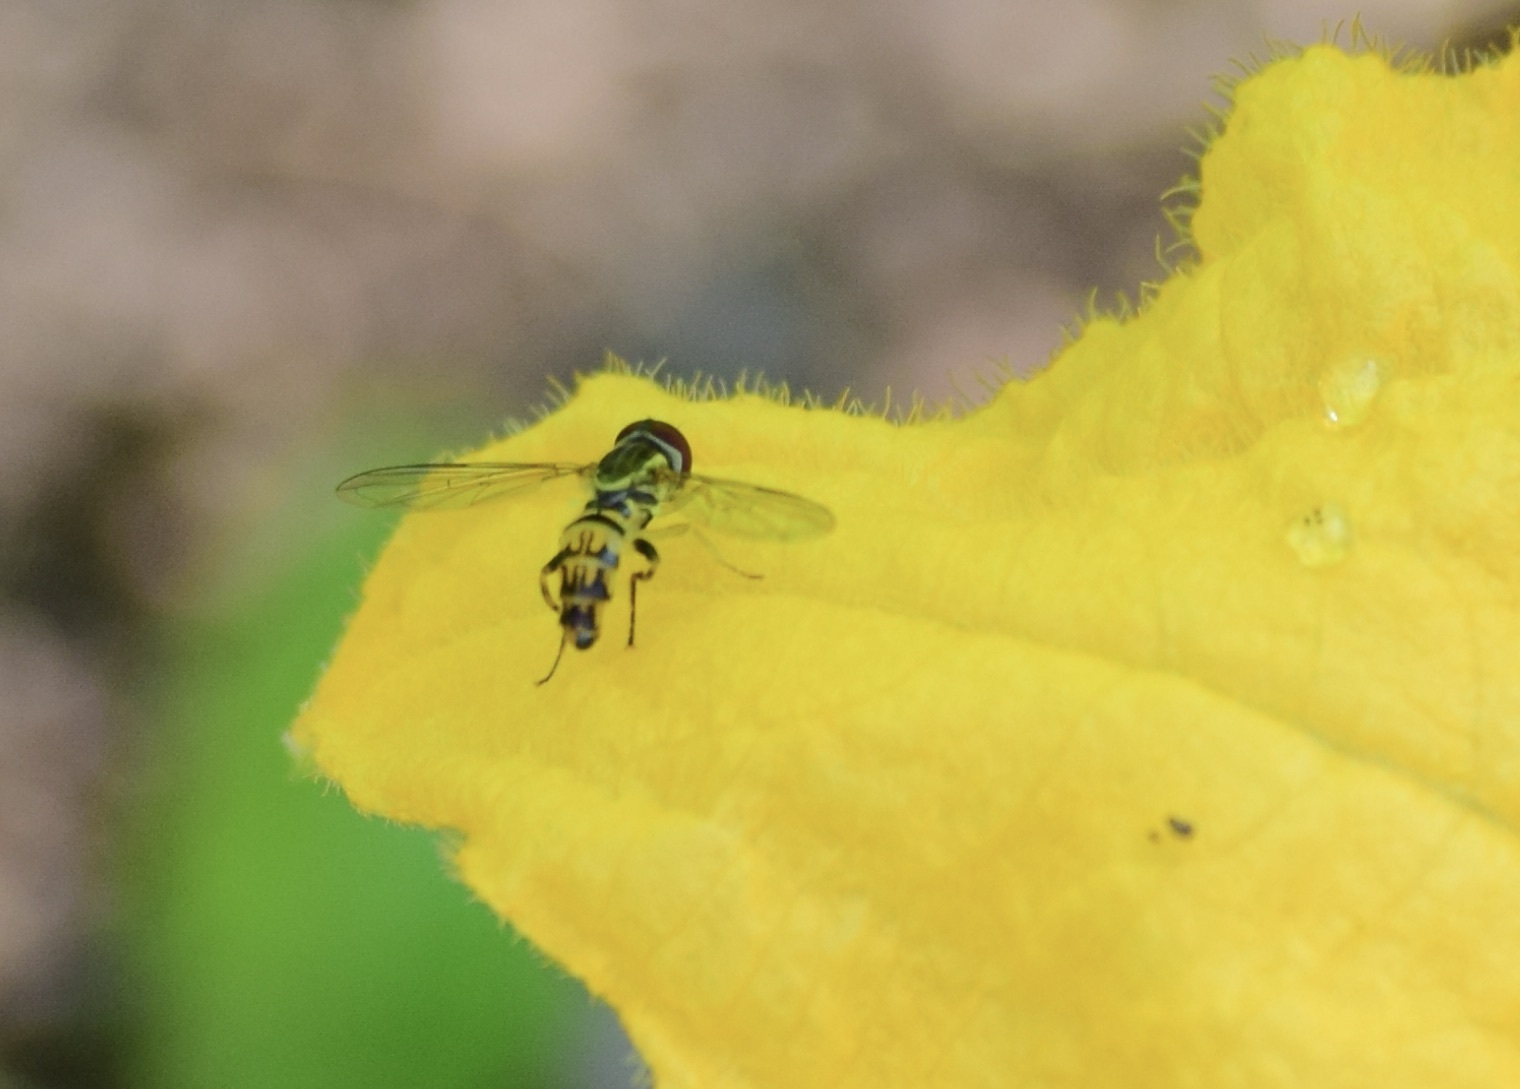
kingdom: Animalia
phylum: Arthropoda
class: Insecta
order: Diptera
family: Syrphidae
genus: Toxomerus
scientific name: Toxomerus geminatus
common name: Eastern calligrapher
